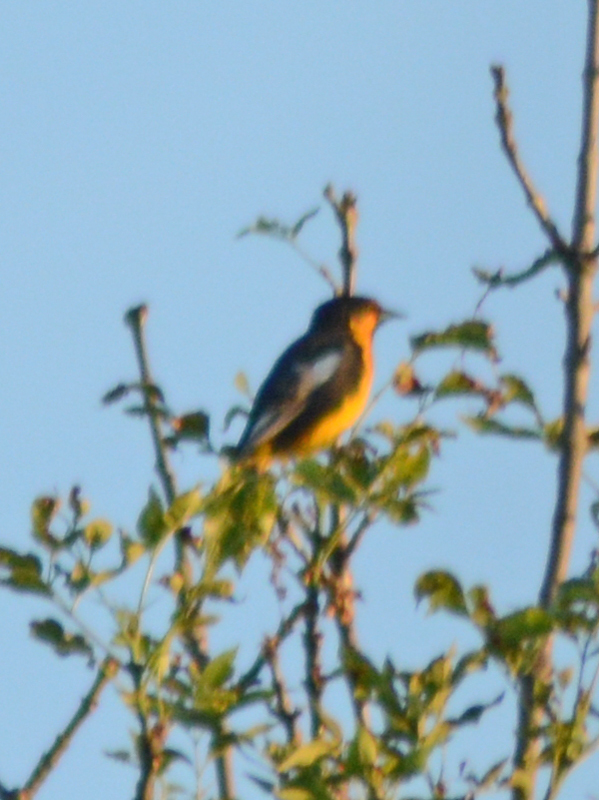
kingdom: Animalia
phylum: Chordata
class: Aves
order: Passeriformes
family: Icteridae
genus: Icterus
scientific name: Icterus abeillei
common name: Black-backed oriole
